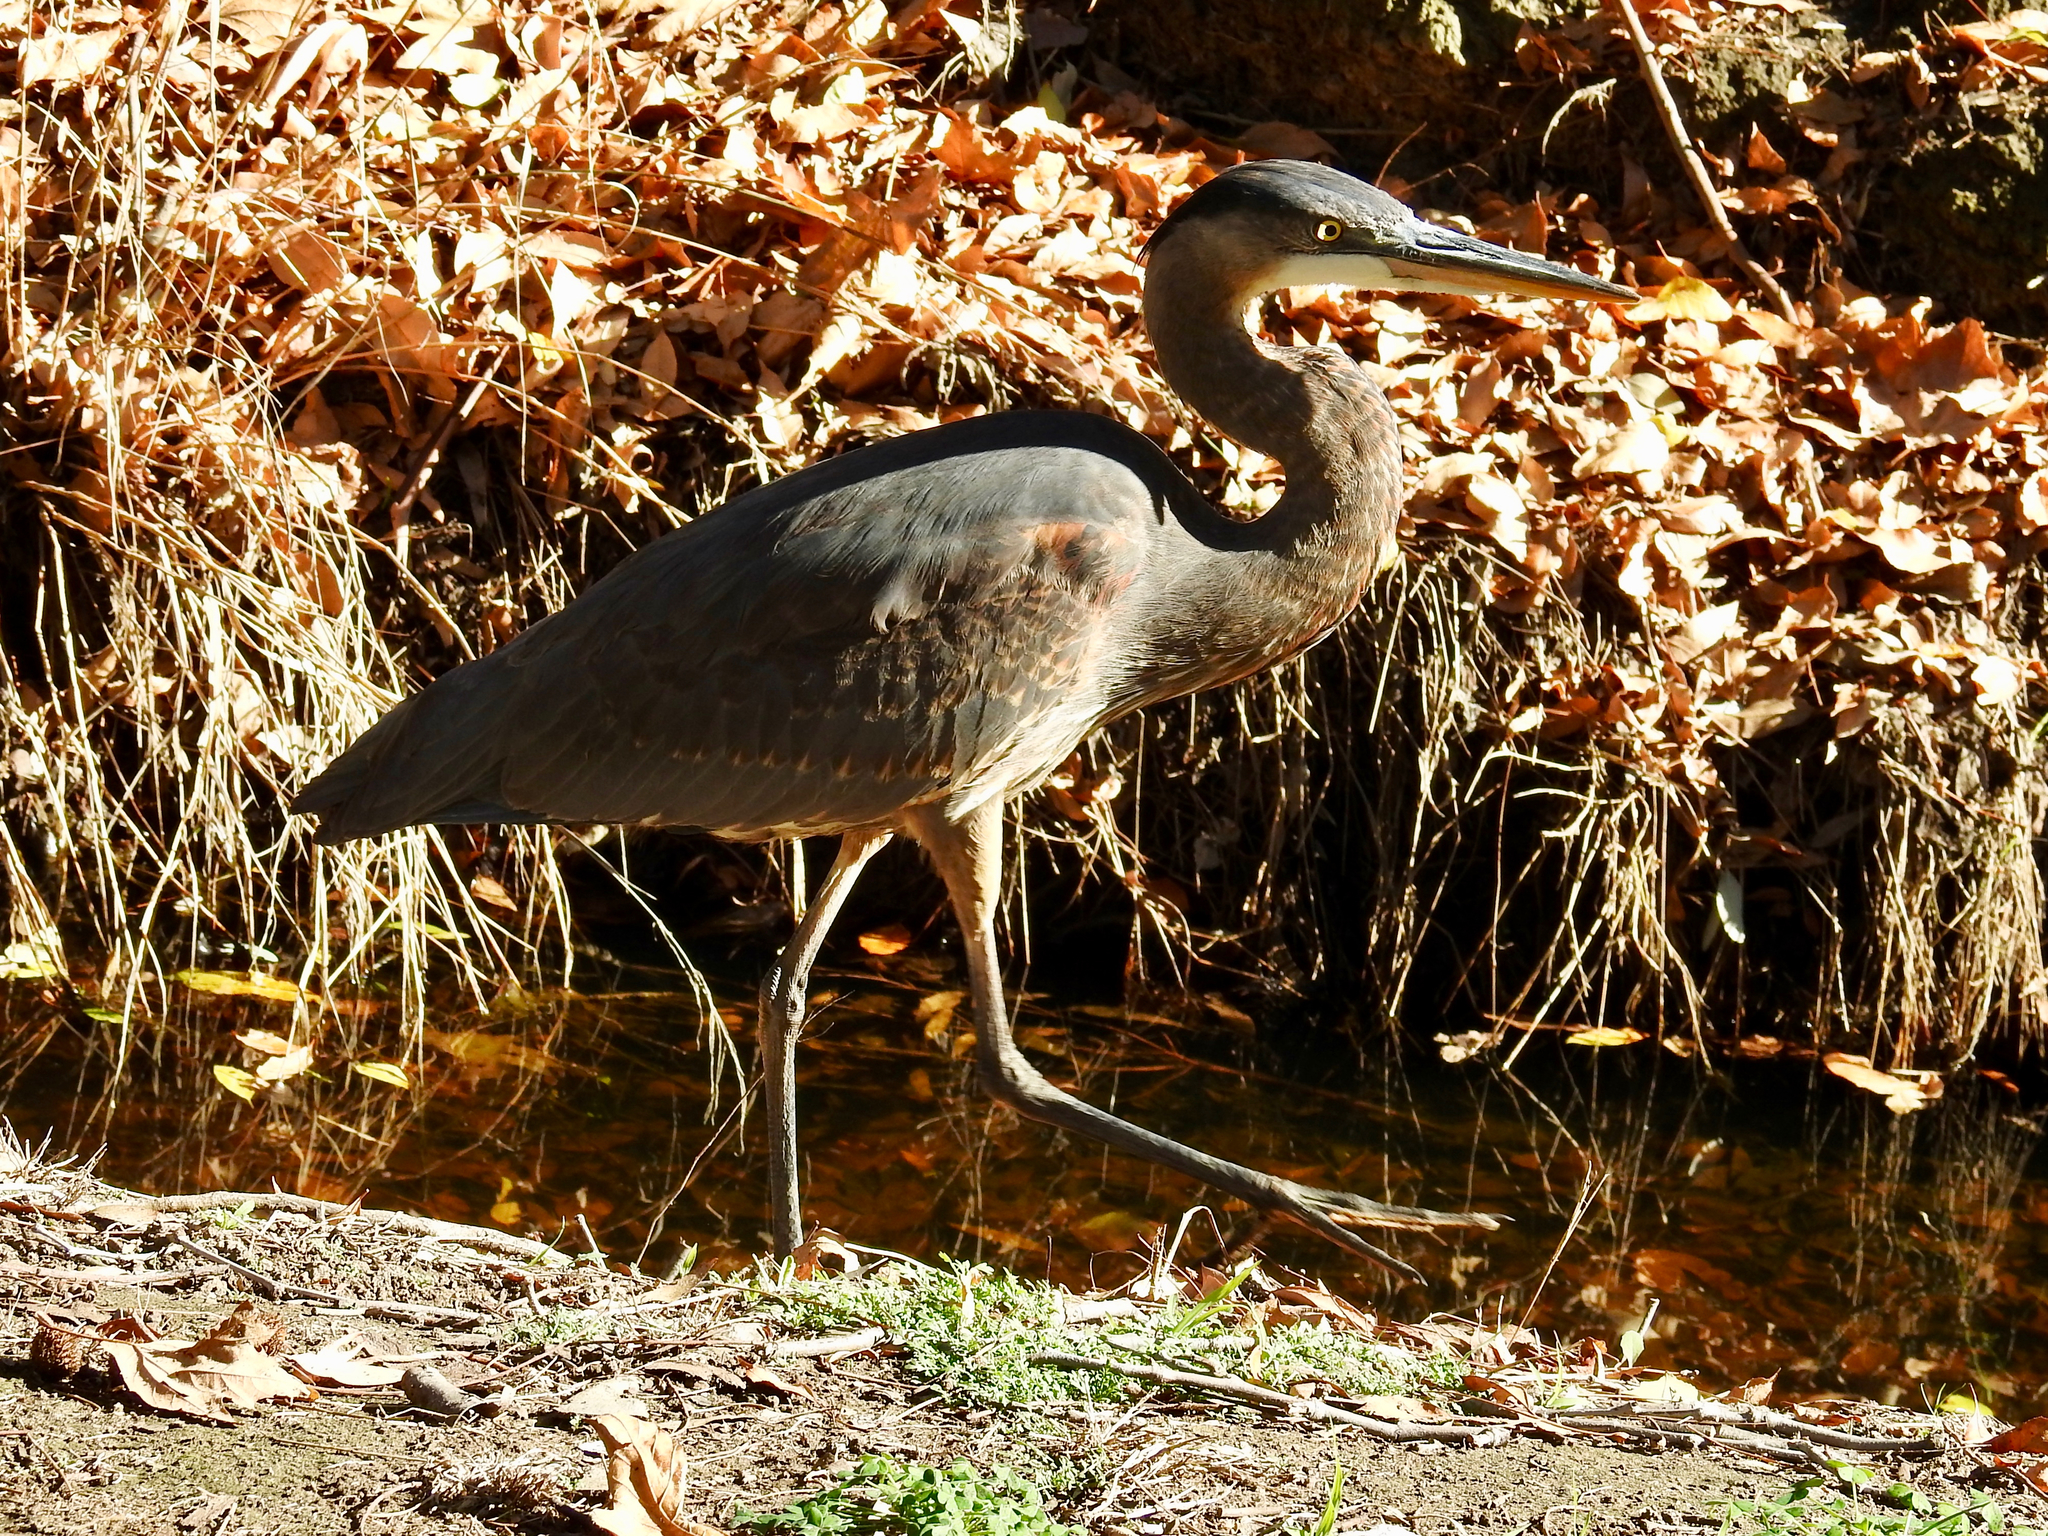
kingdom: Animalia
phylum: Chordata
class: Aves
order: Pelecaniformes
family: Ardeidae
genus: Ardea
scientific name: Ardea herodias
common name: Great blue heron
